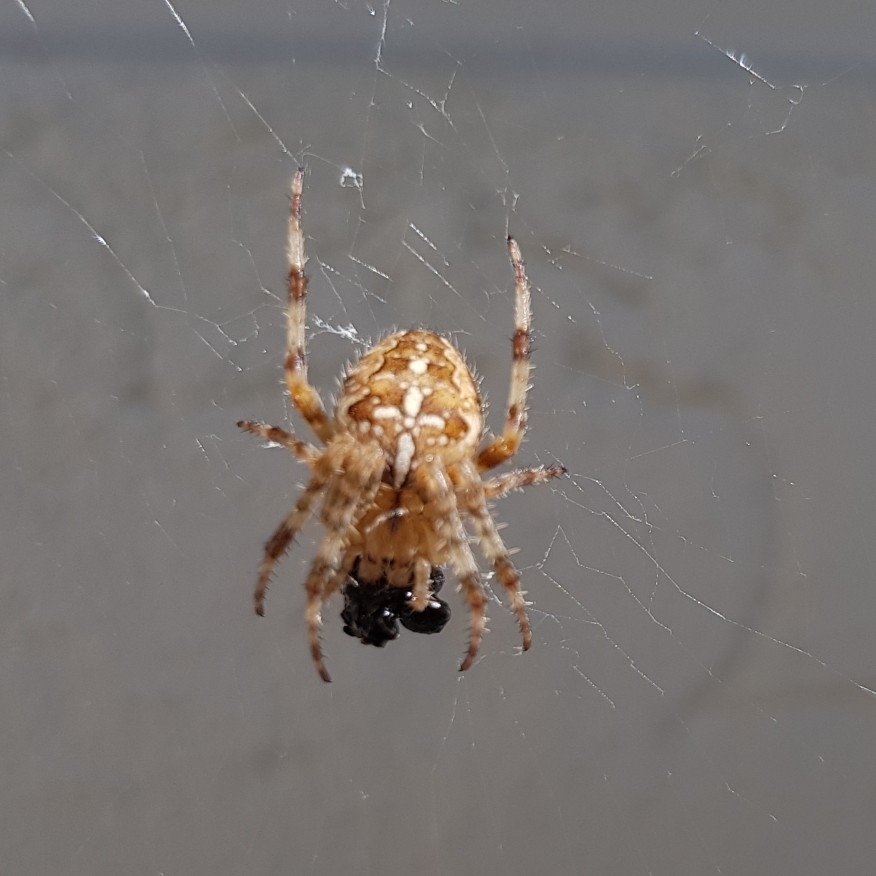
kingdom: Animalia
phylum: Arthropoda
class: Arachnida
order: Araneae
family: Araneidae
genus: Araneus
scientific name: Araneus diadematus
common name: Cross orbweaver
